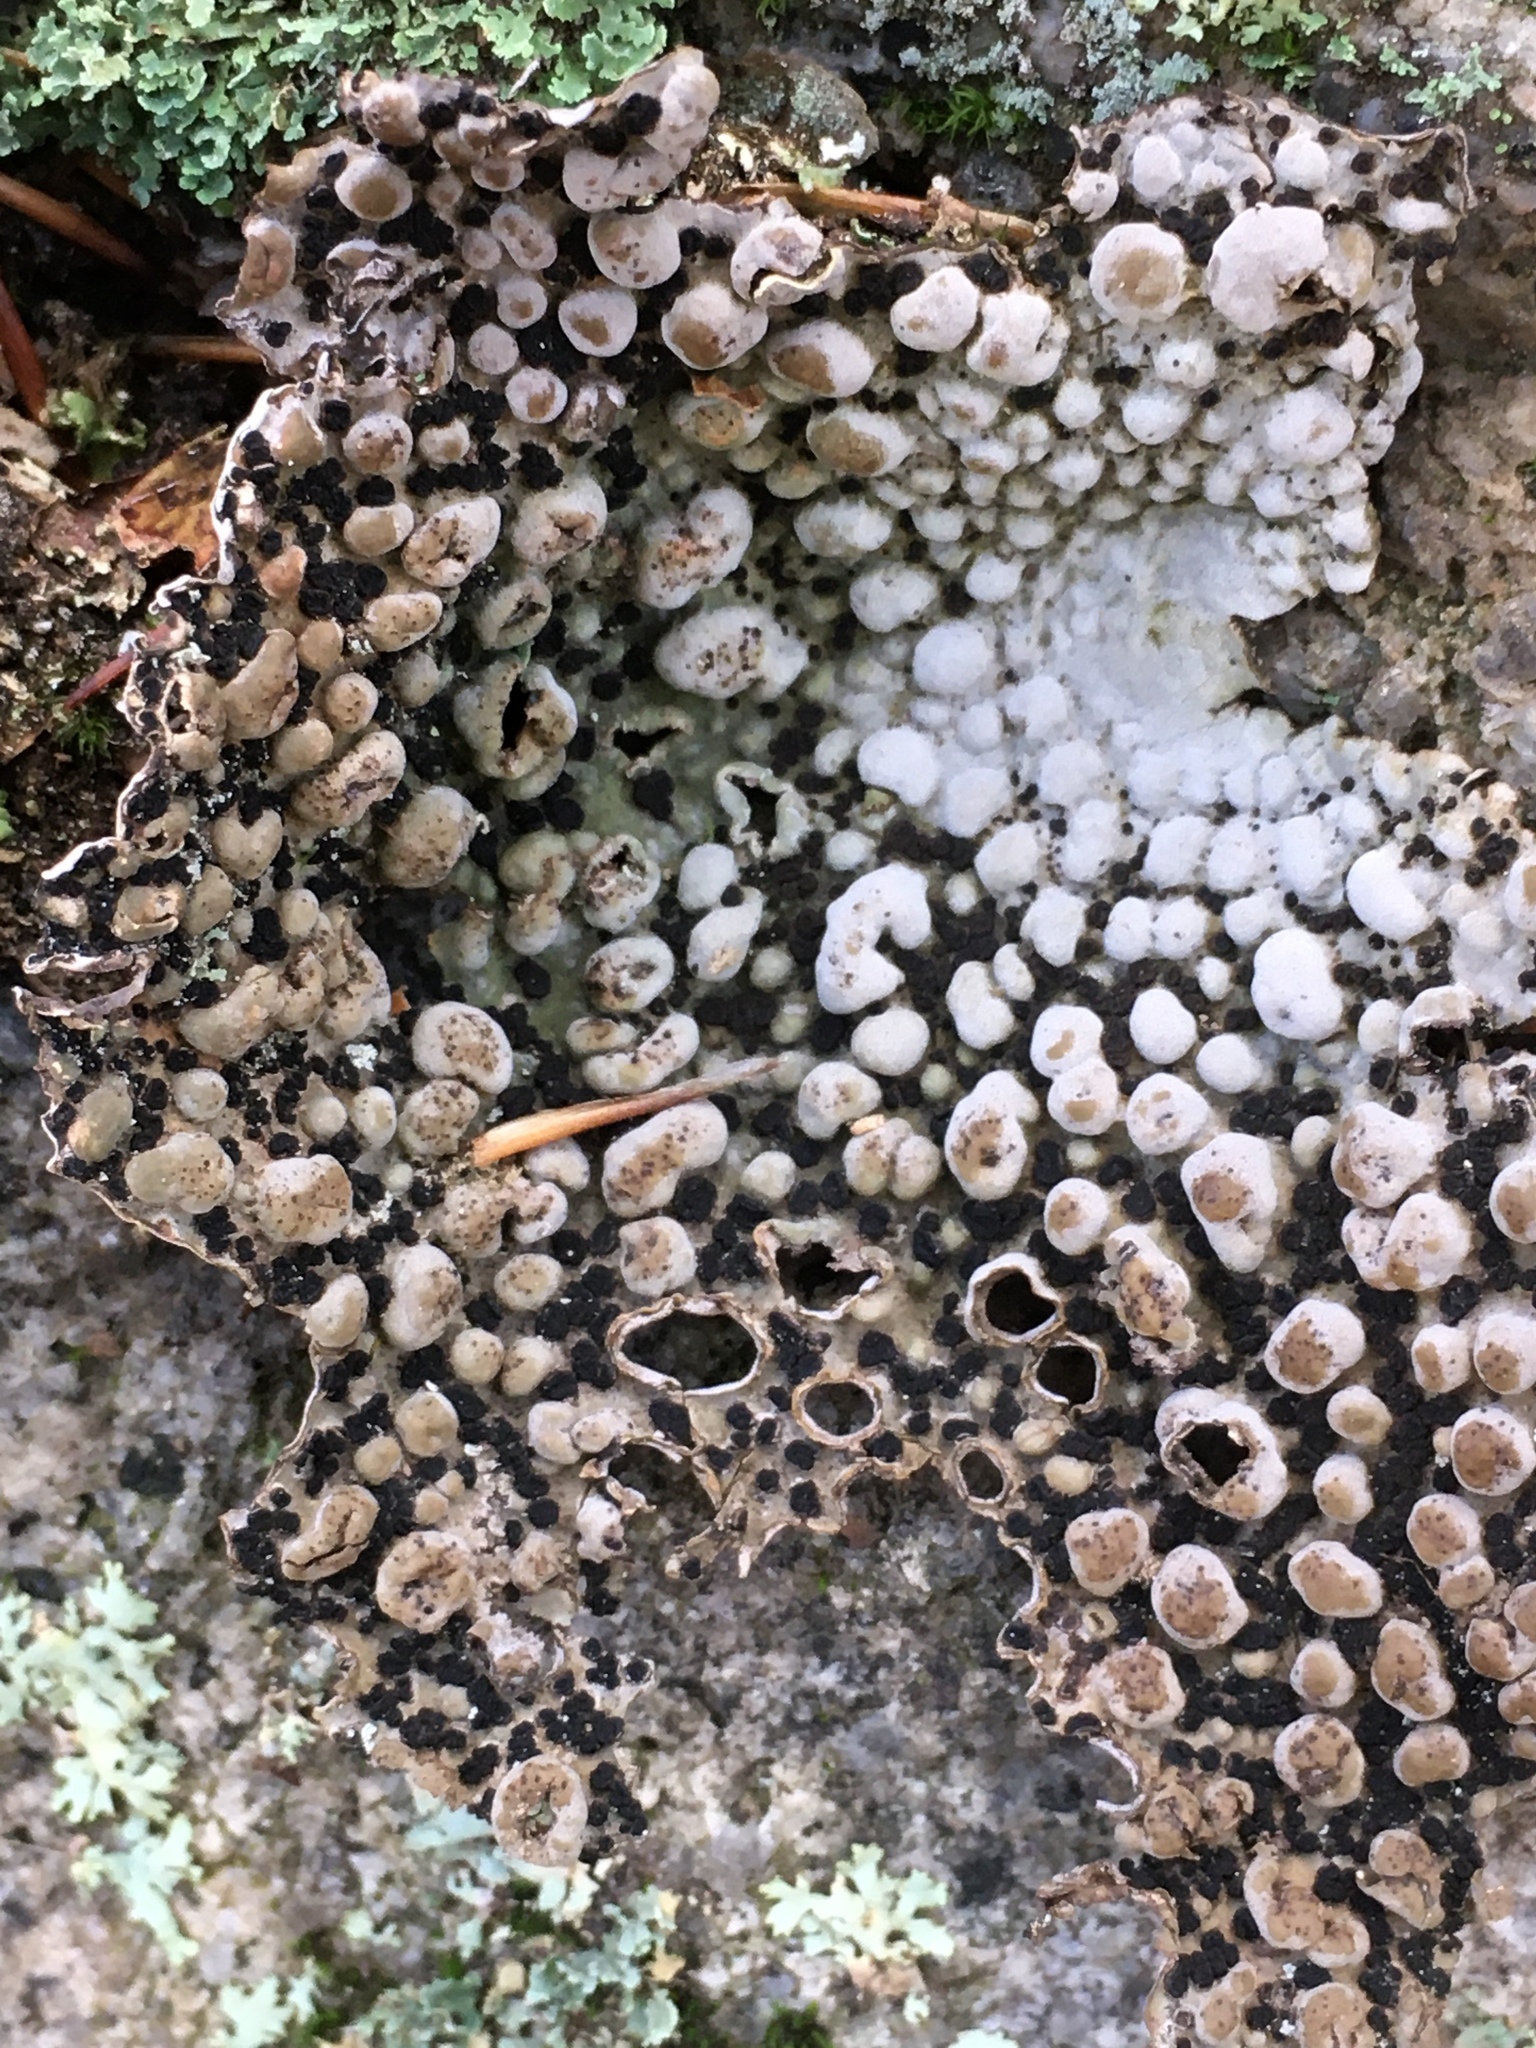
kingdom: Fungi
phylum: Ascomycota
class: Lecanoromycetes
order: Umbilicariales
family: Umbilicariaceae
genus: Lasallia
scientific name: Lasallia papulosa
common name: Common toadskin lichen
